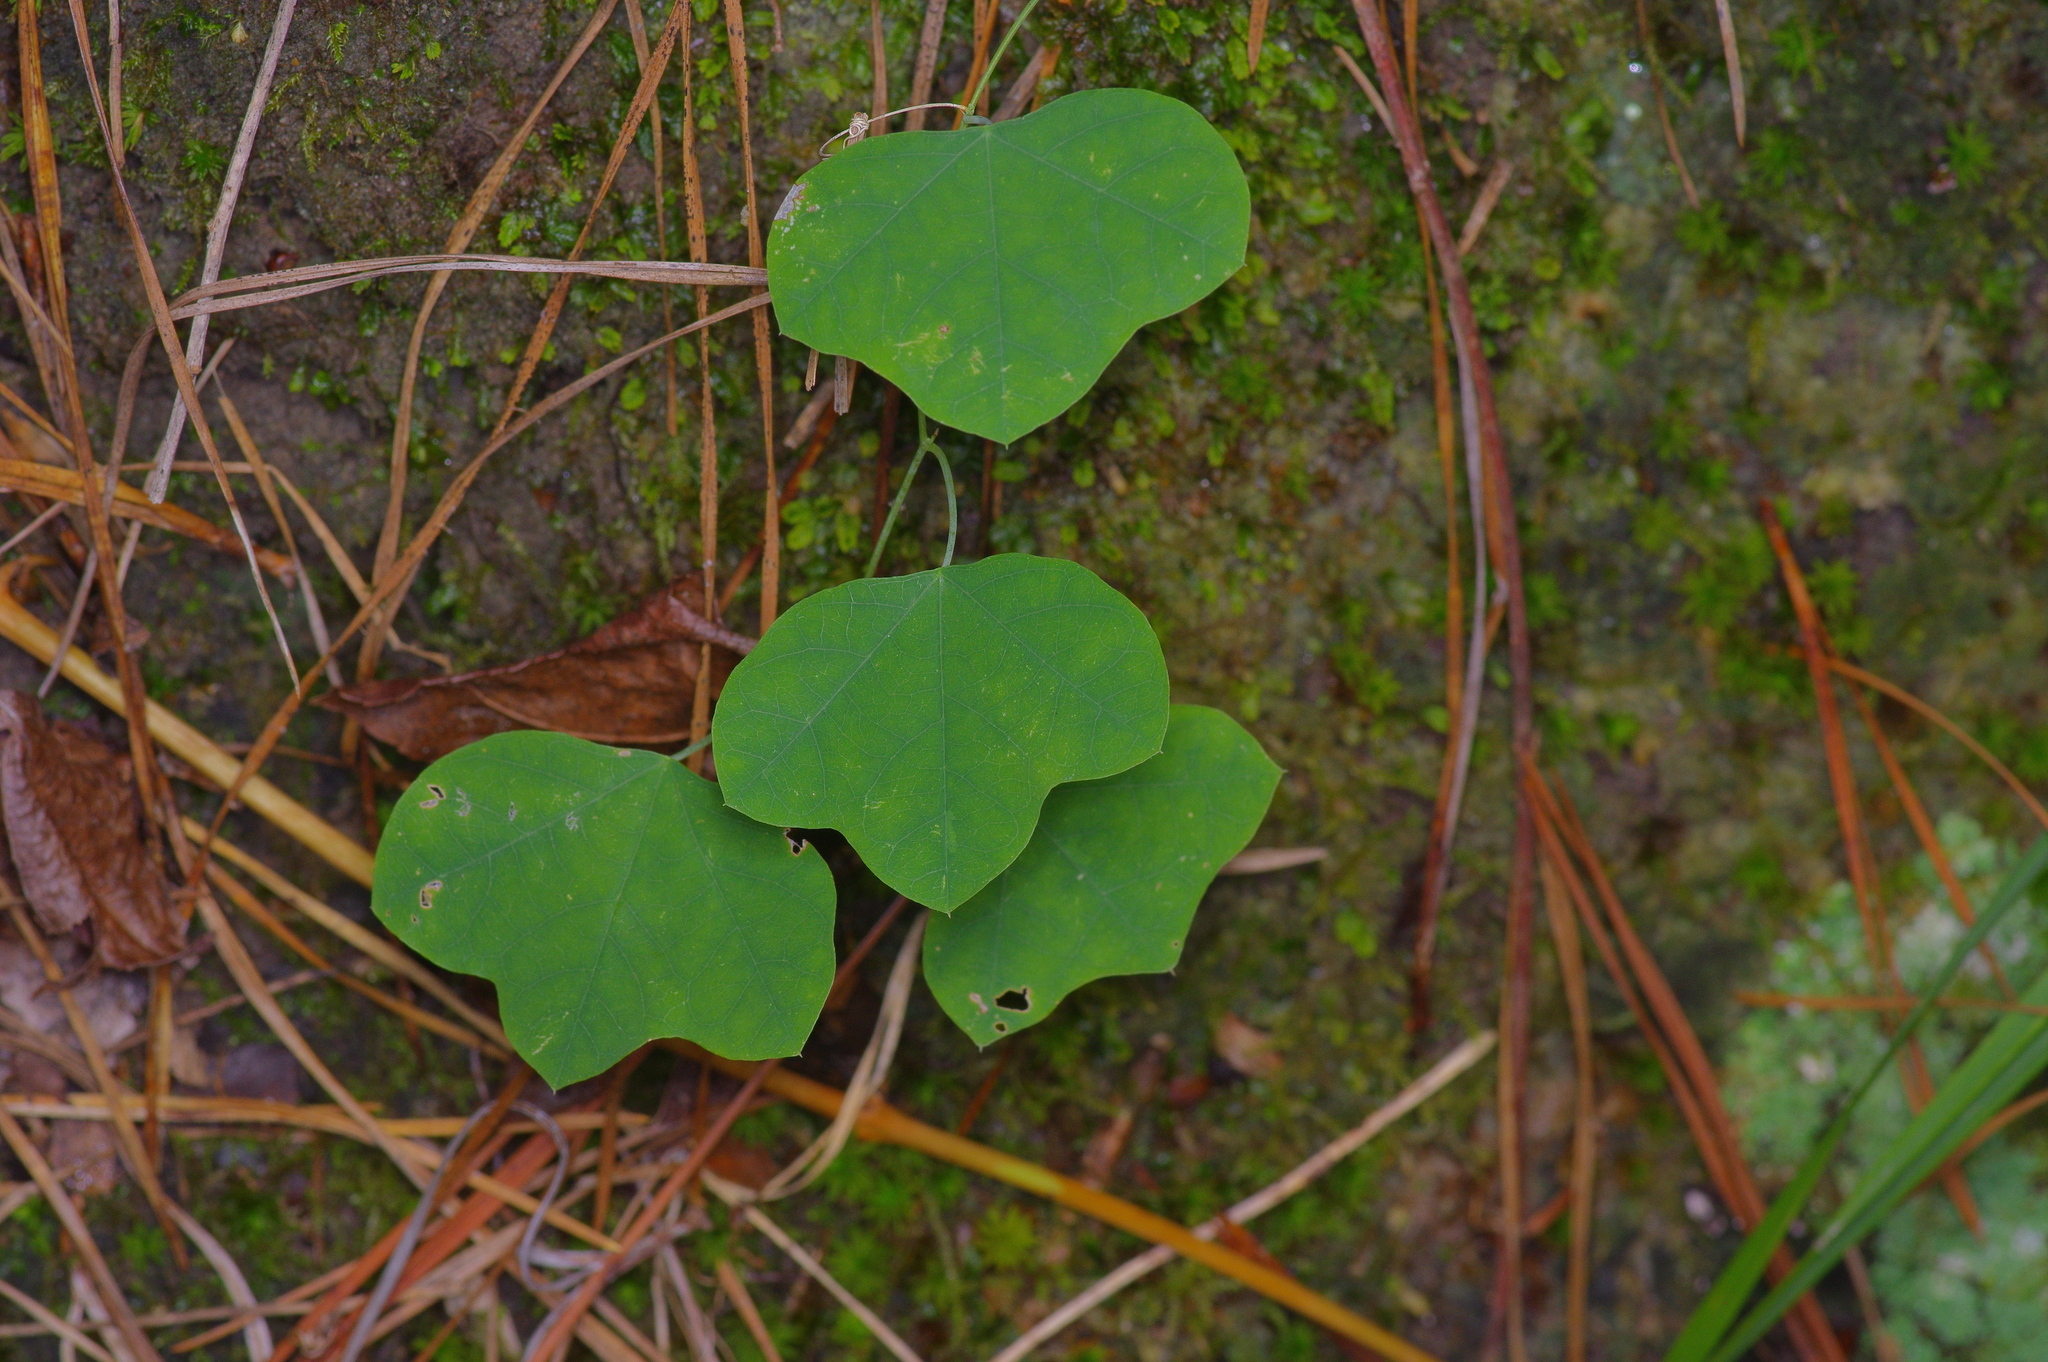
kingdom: Plantae
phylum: Tracheophyta
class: Magnoliopsida
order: Malpighiales
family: Passifloraceae
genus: Passiflora
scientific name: Passiflora lutea
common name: Yellow passionflower
